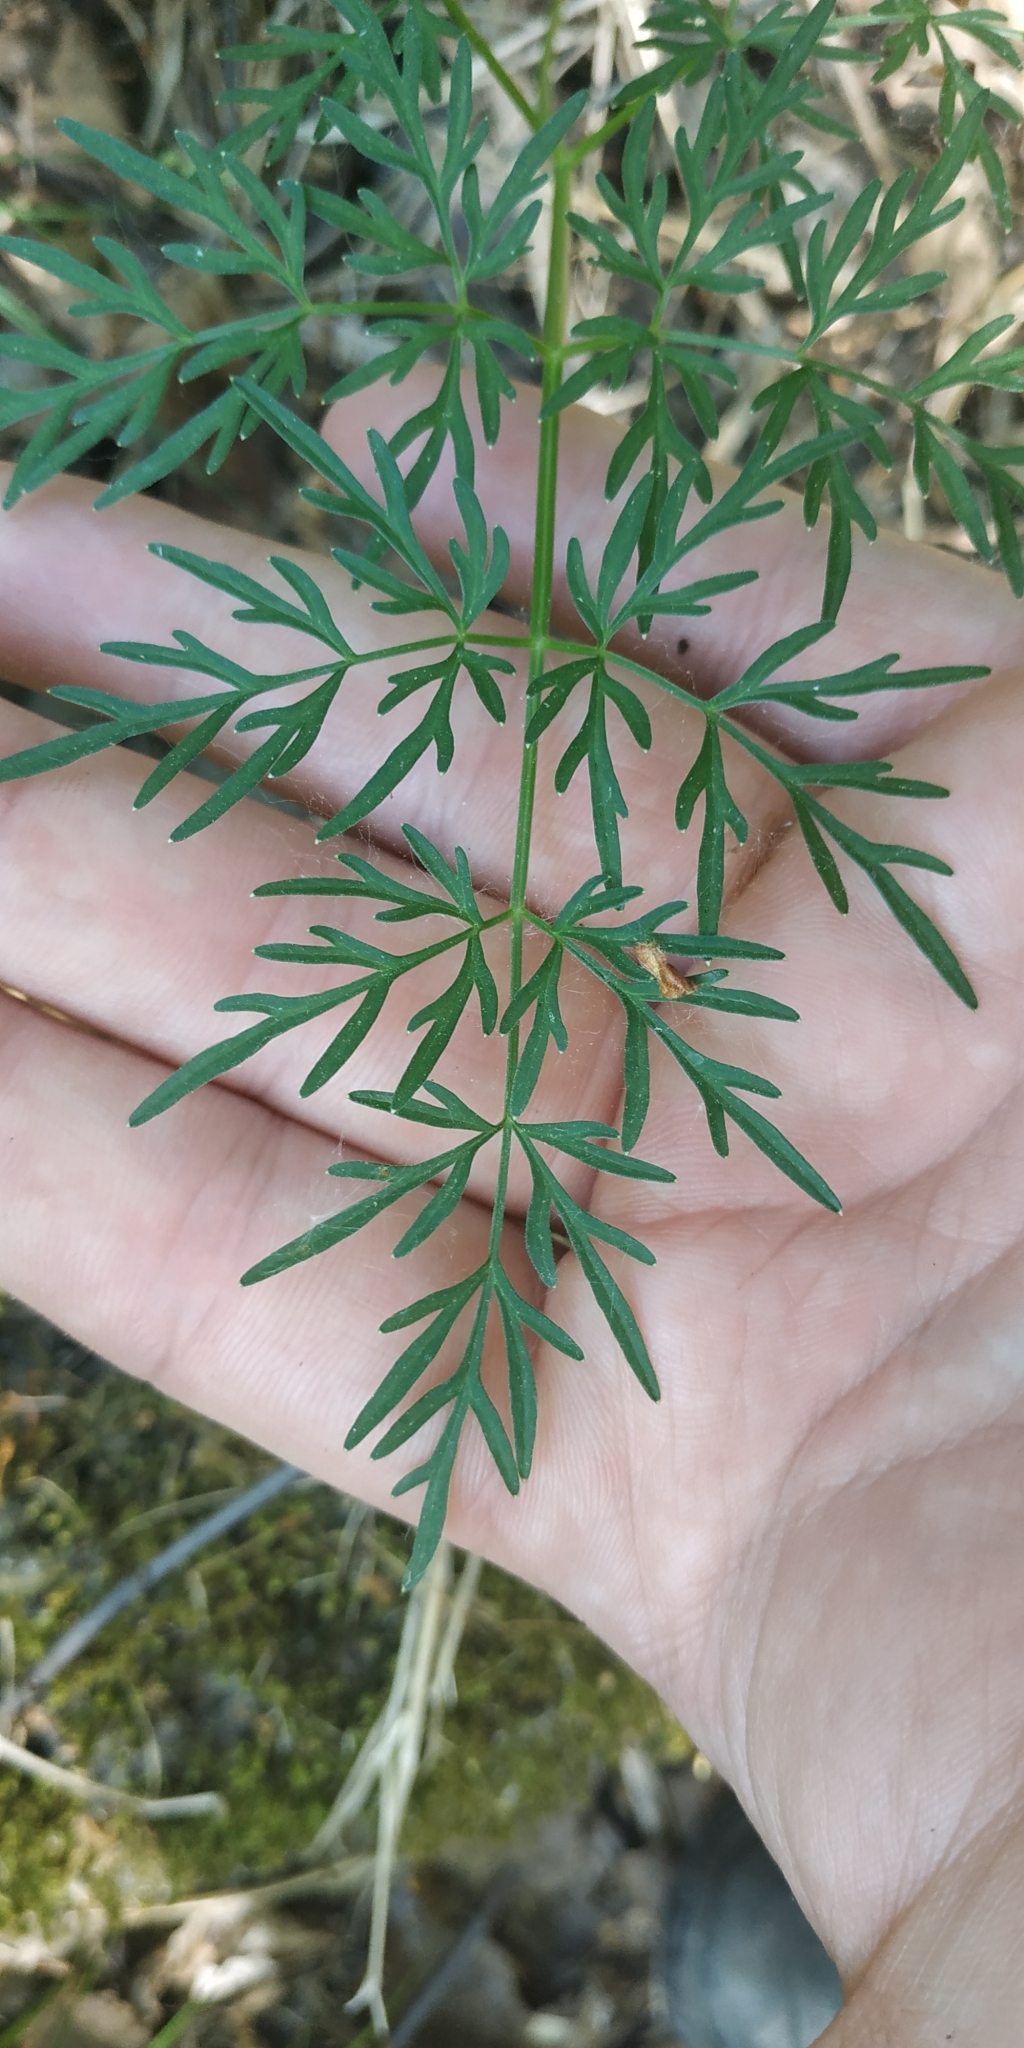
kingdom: Plantae
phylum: Tracheophyta
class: Magnoliopsida
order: Apiales
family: Apiaceae
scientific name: Apiaceae
